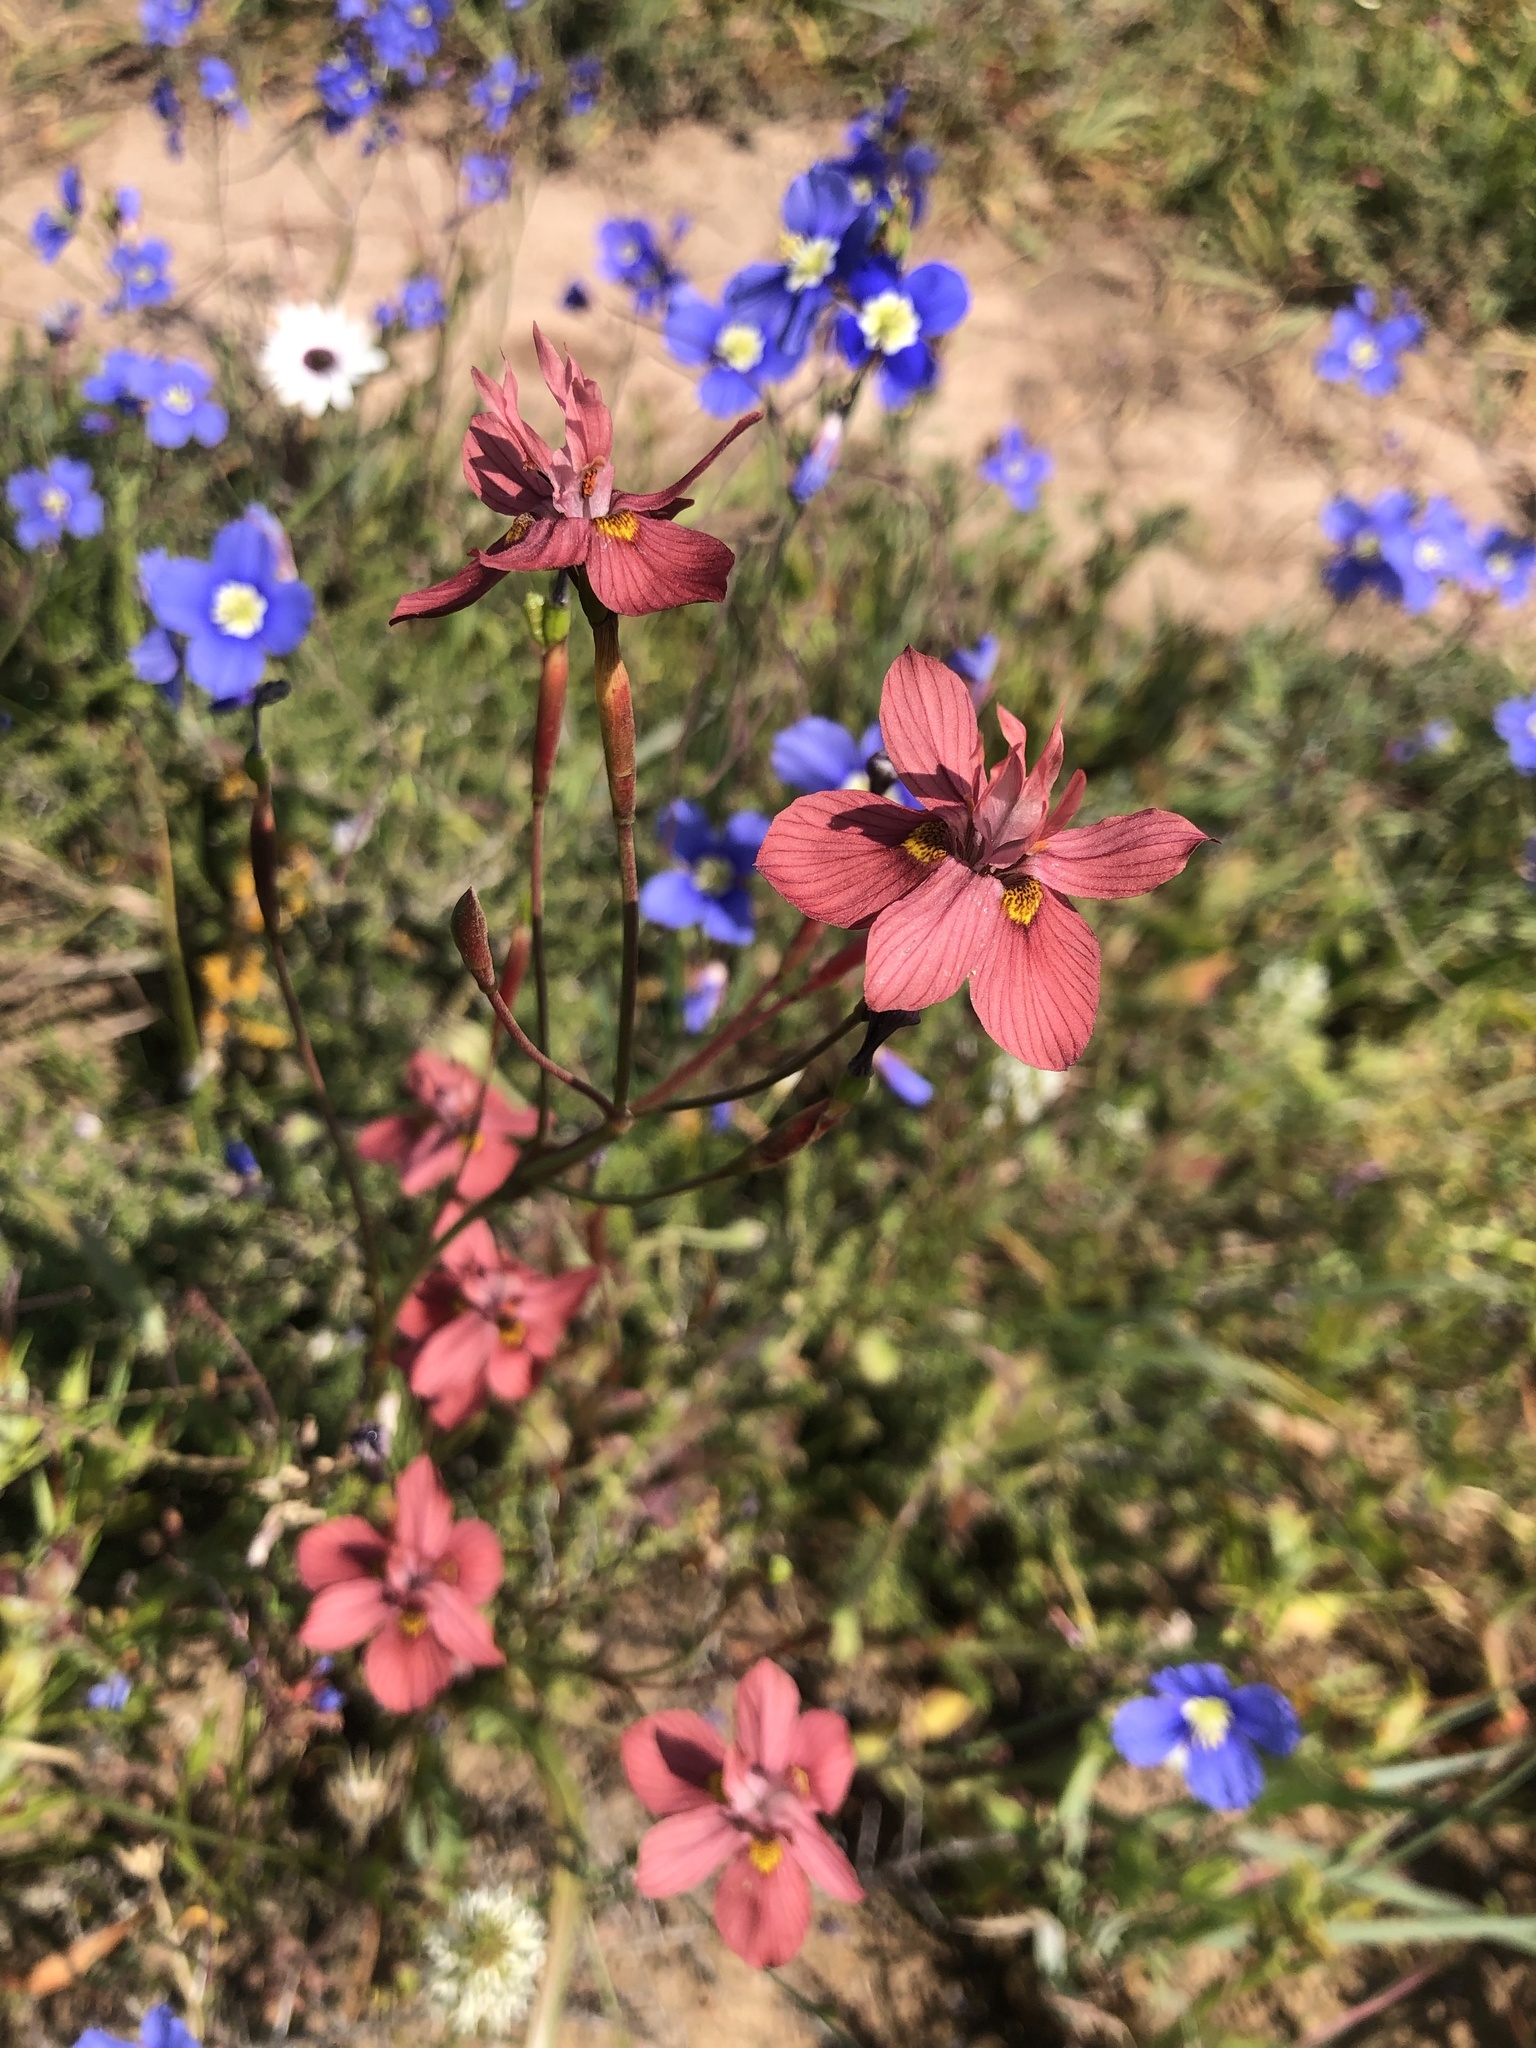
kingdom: Plantae
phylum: Tracheophyta
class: Liliopsida
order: Asparagales
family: Iridaceae
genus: Moraea
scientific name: Moraea gawleri
